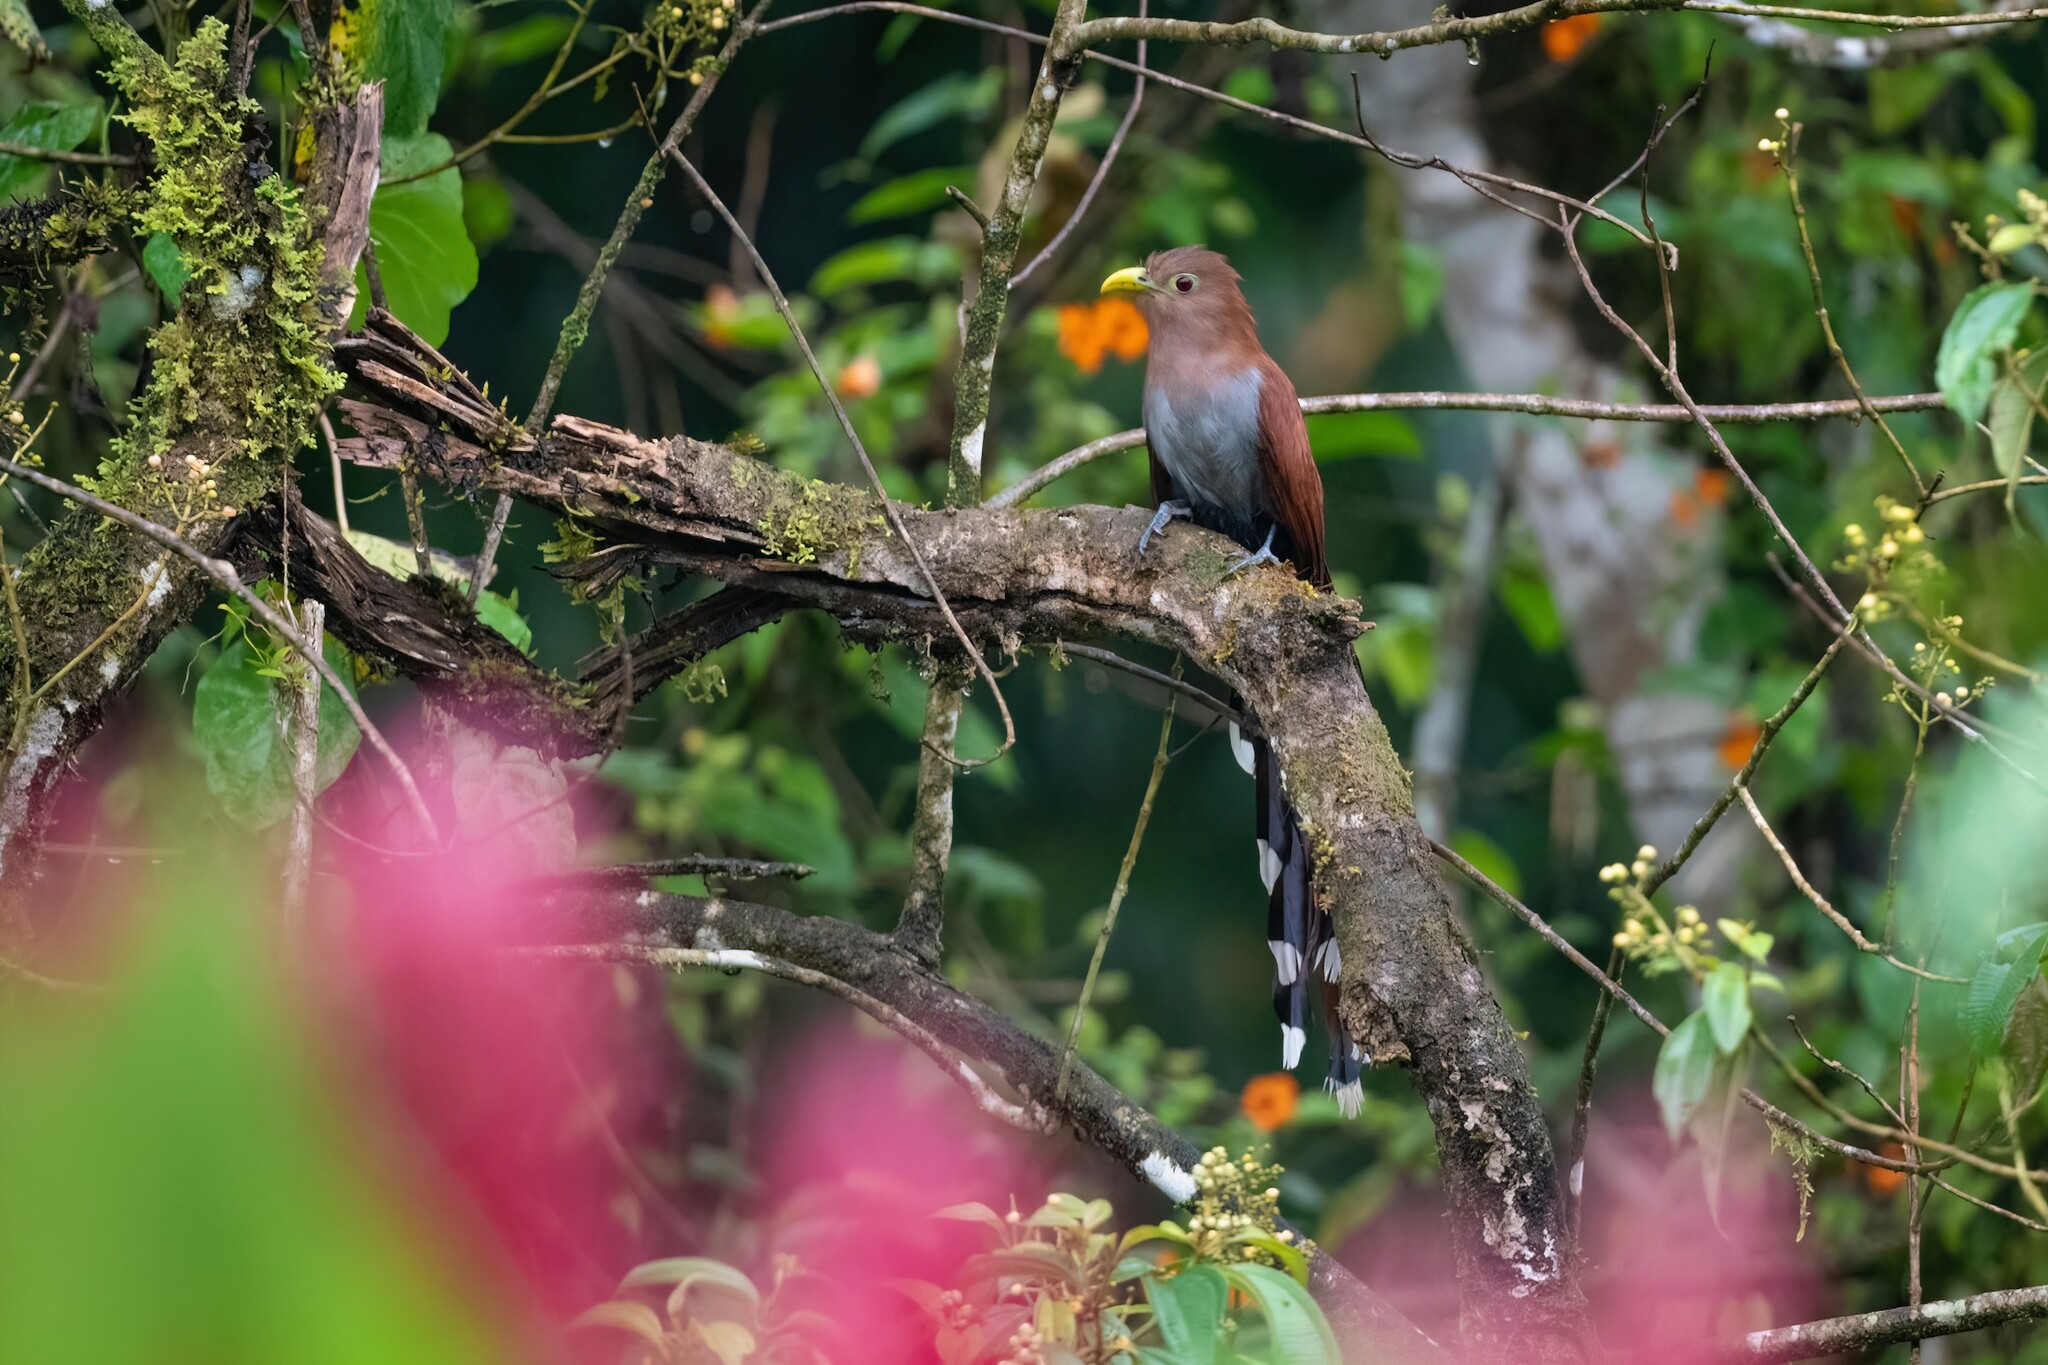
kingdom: Animalia
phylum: Chordata
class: Aves
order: Cuculiformes
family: Cuculidae
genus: Piaya
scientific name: Piaya cayana
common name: Squirrel cuckoo
